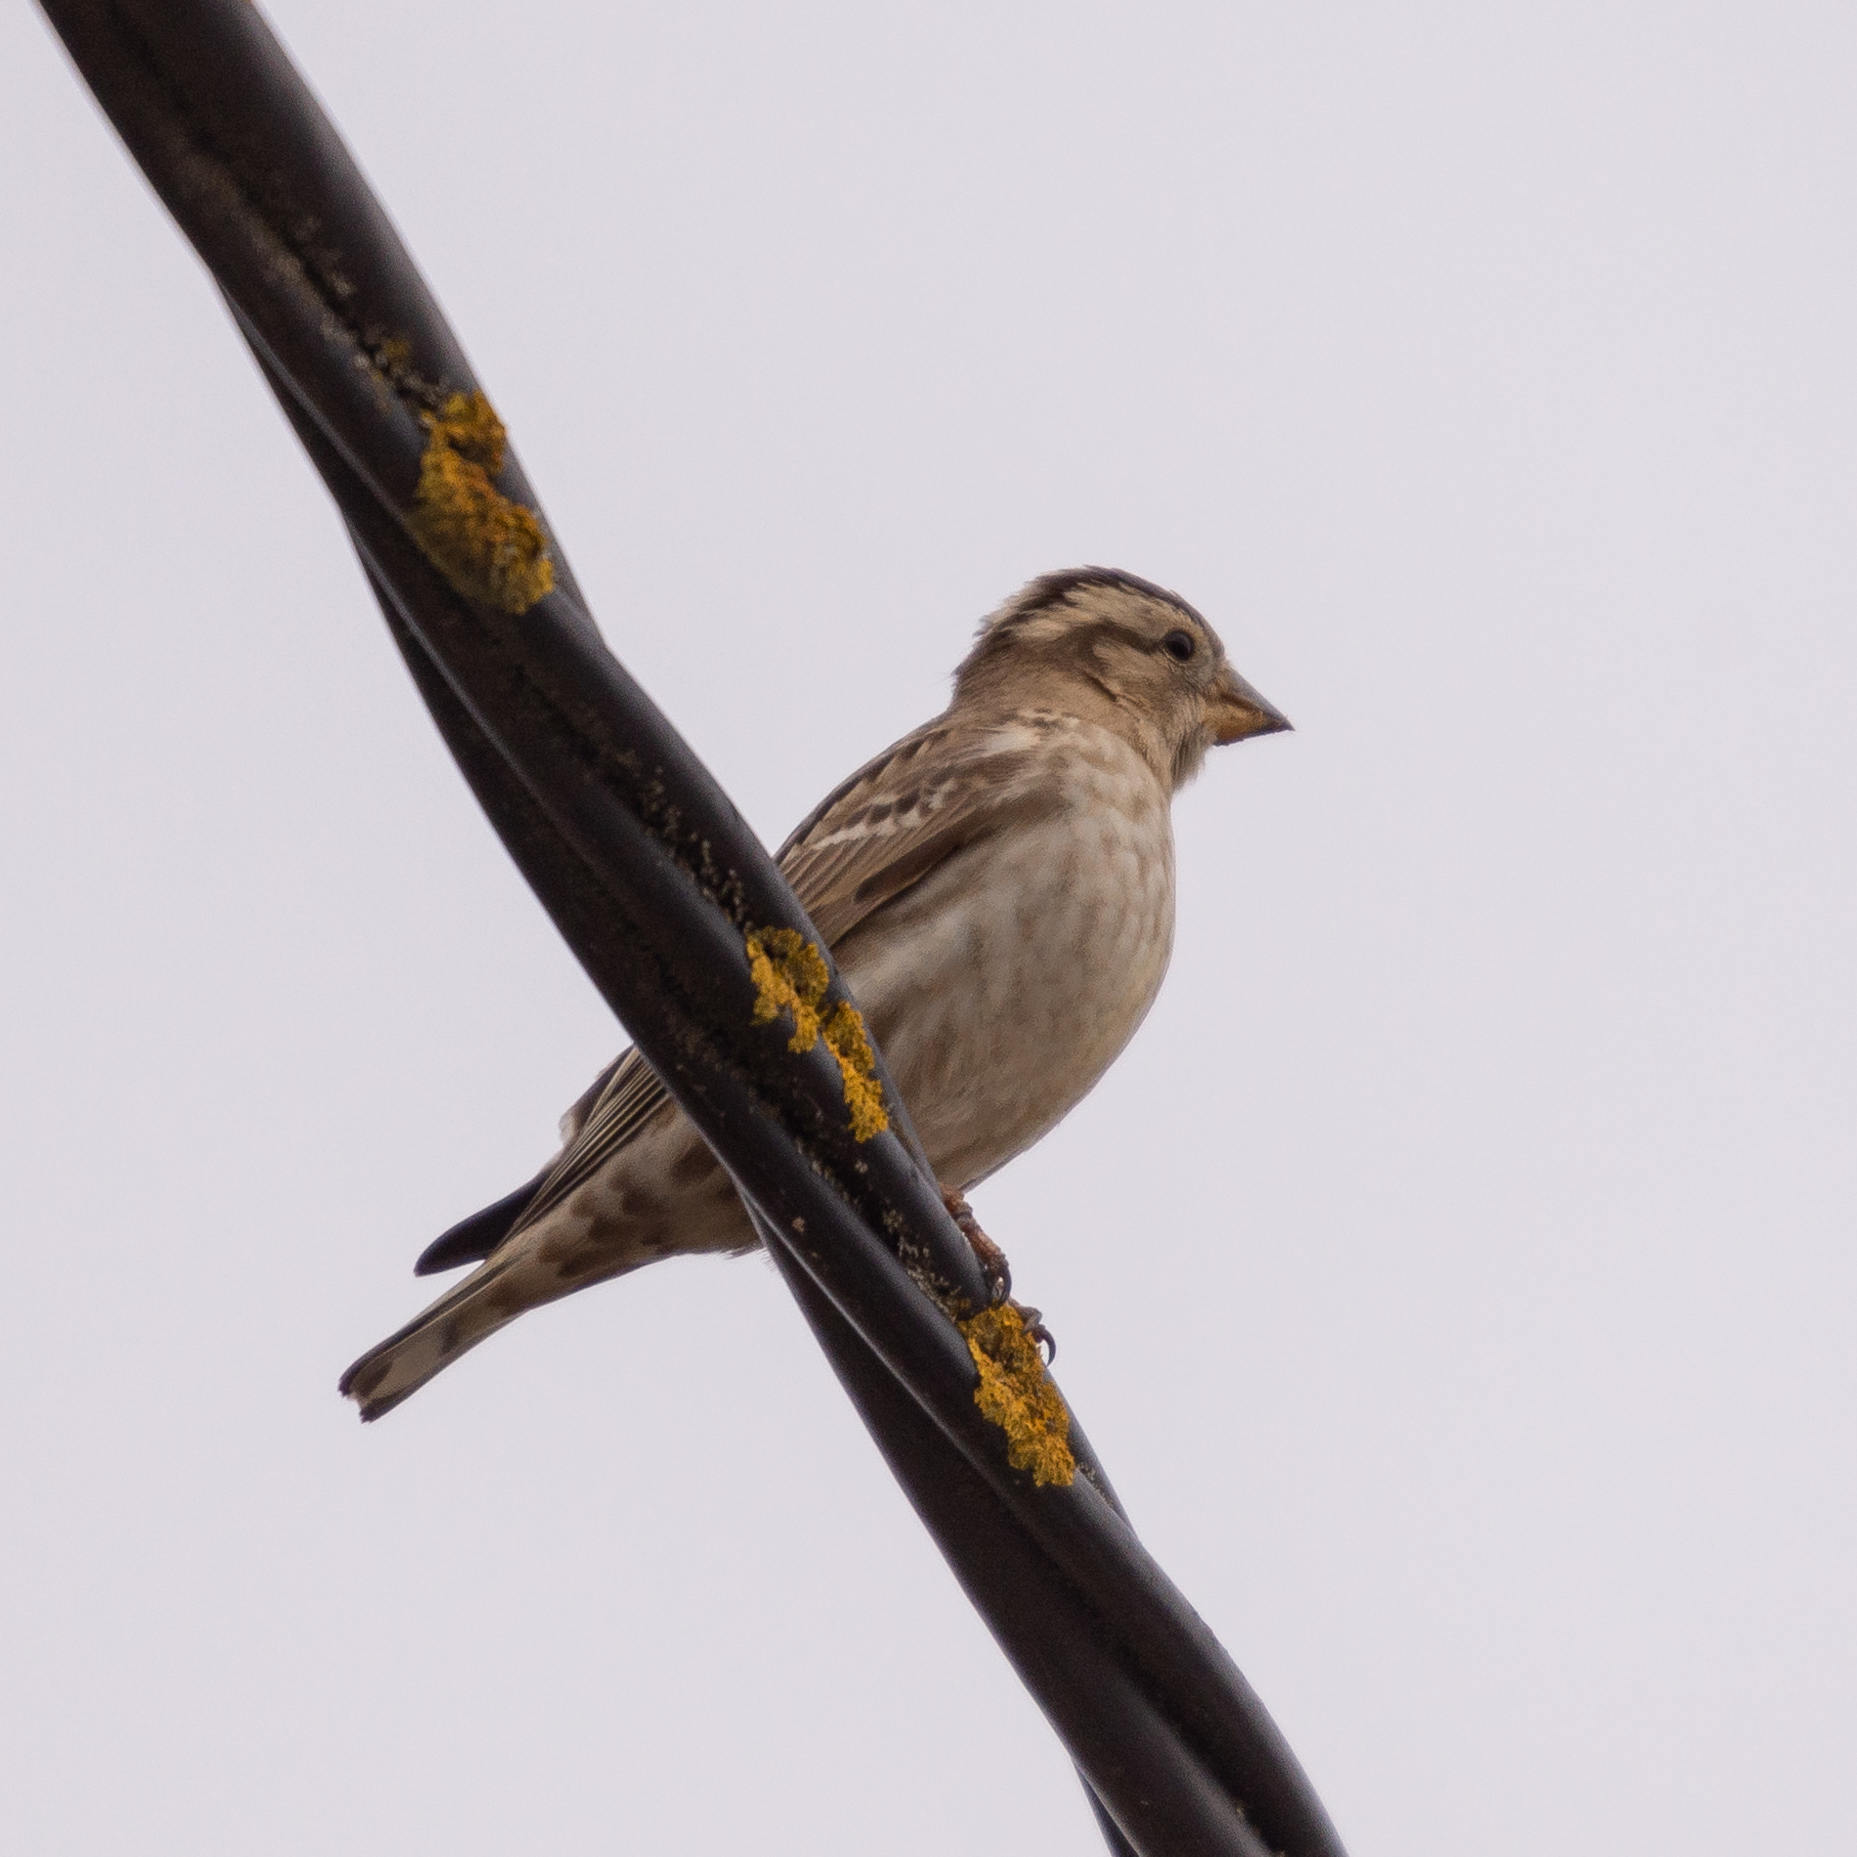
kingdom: Animalia
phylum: Chordata
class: Aves
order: Passeriformes
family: Passeridae
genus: Petronia
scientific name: Petronia petronia
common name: Rock sparrow
